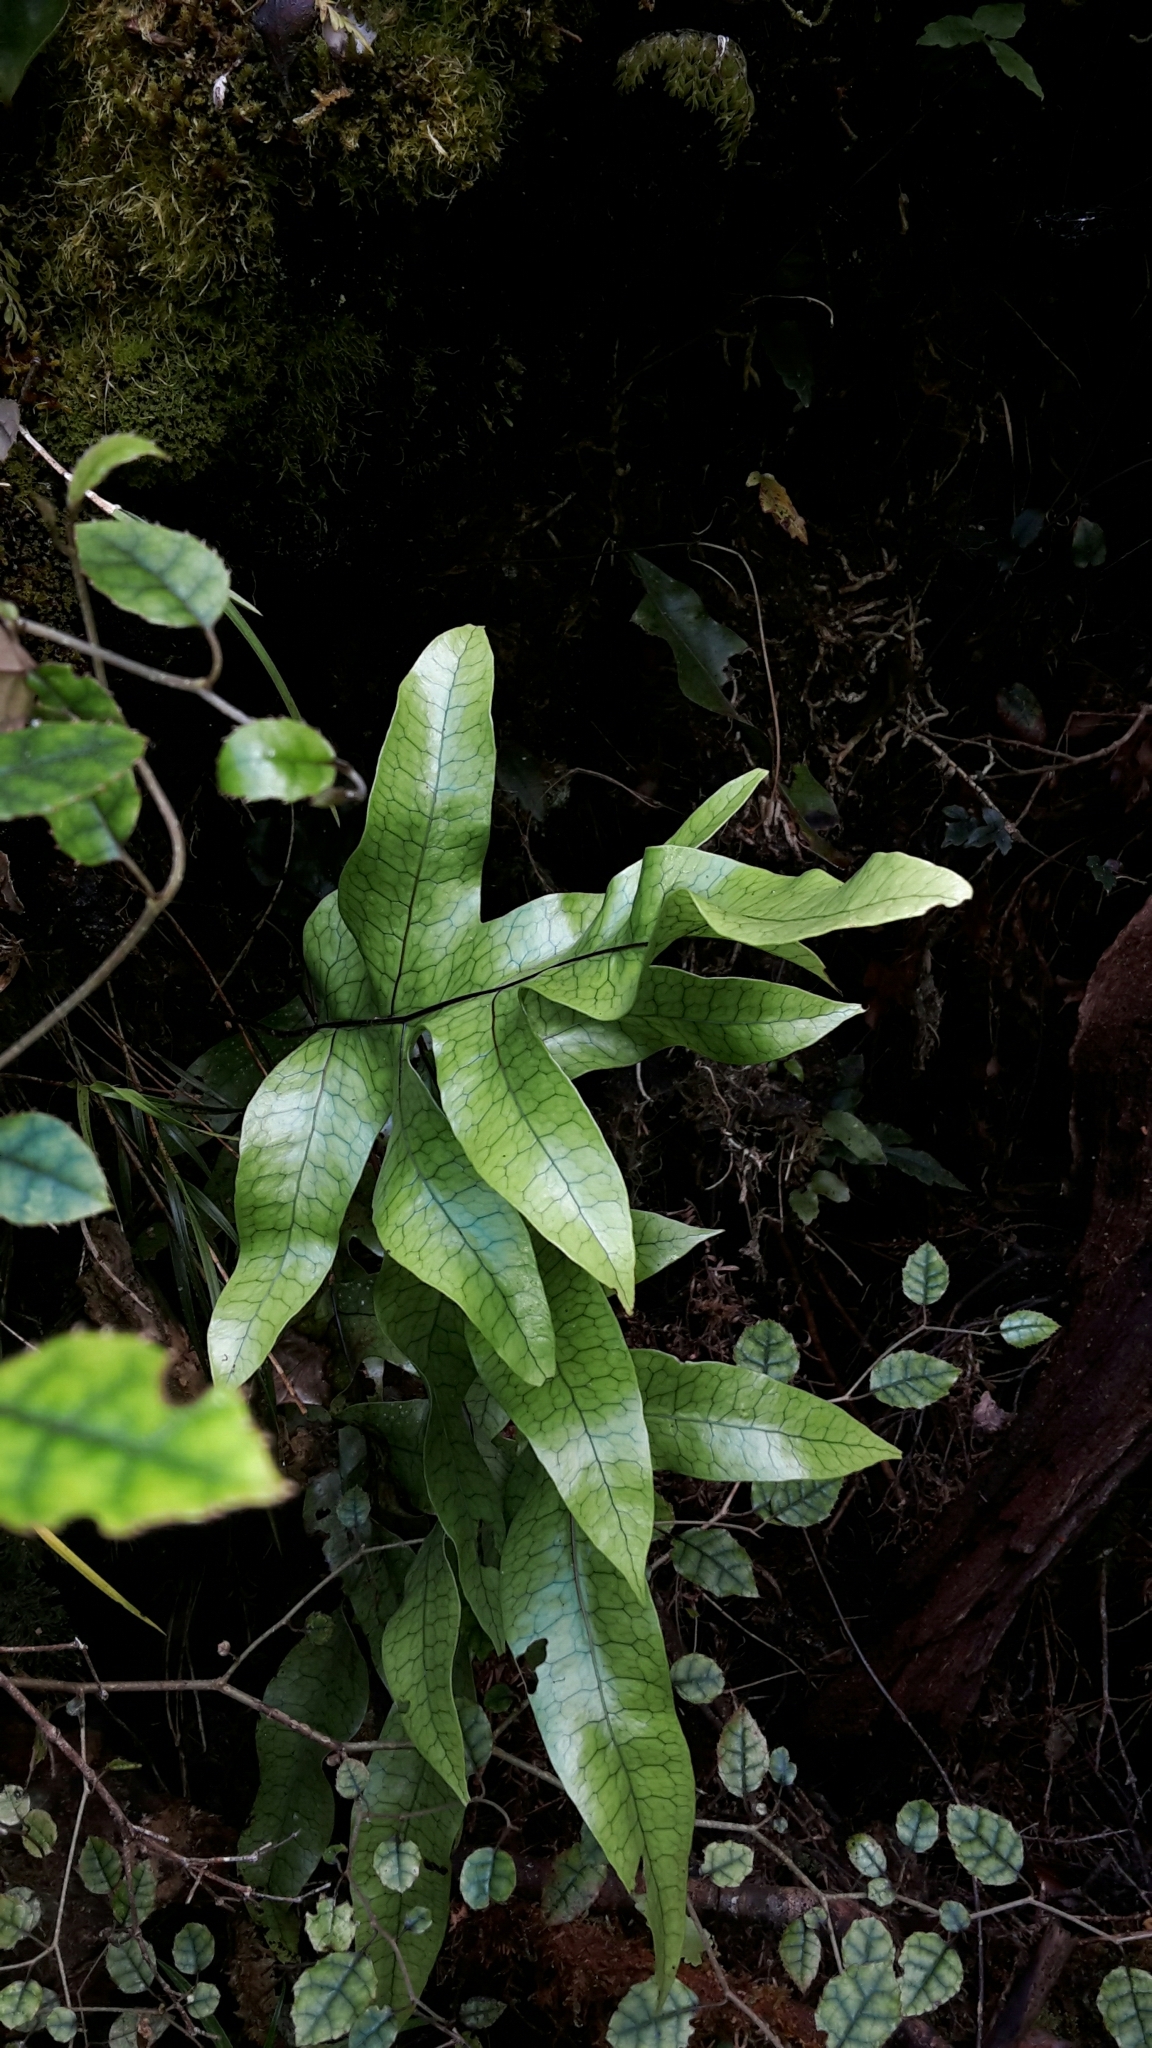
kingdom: Plantae
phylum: Tracheophyta
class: Polypodiopsida
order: Polypodiales
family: Polypodiaceae
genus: Lecanopteris
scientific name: Lecanopteris pustulata
